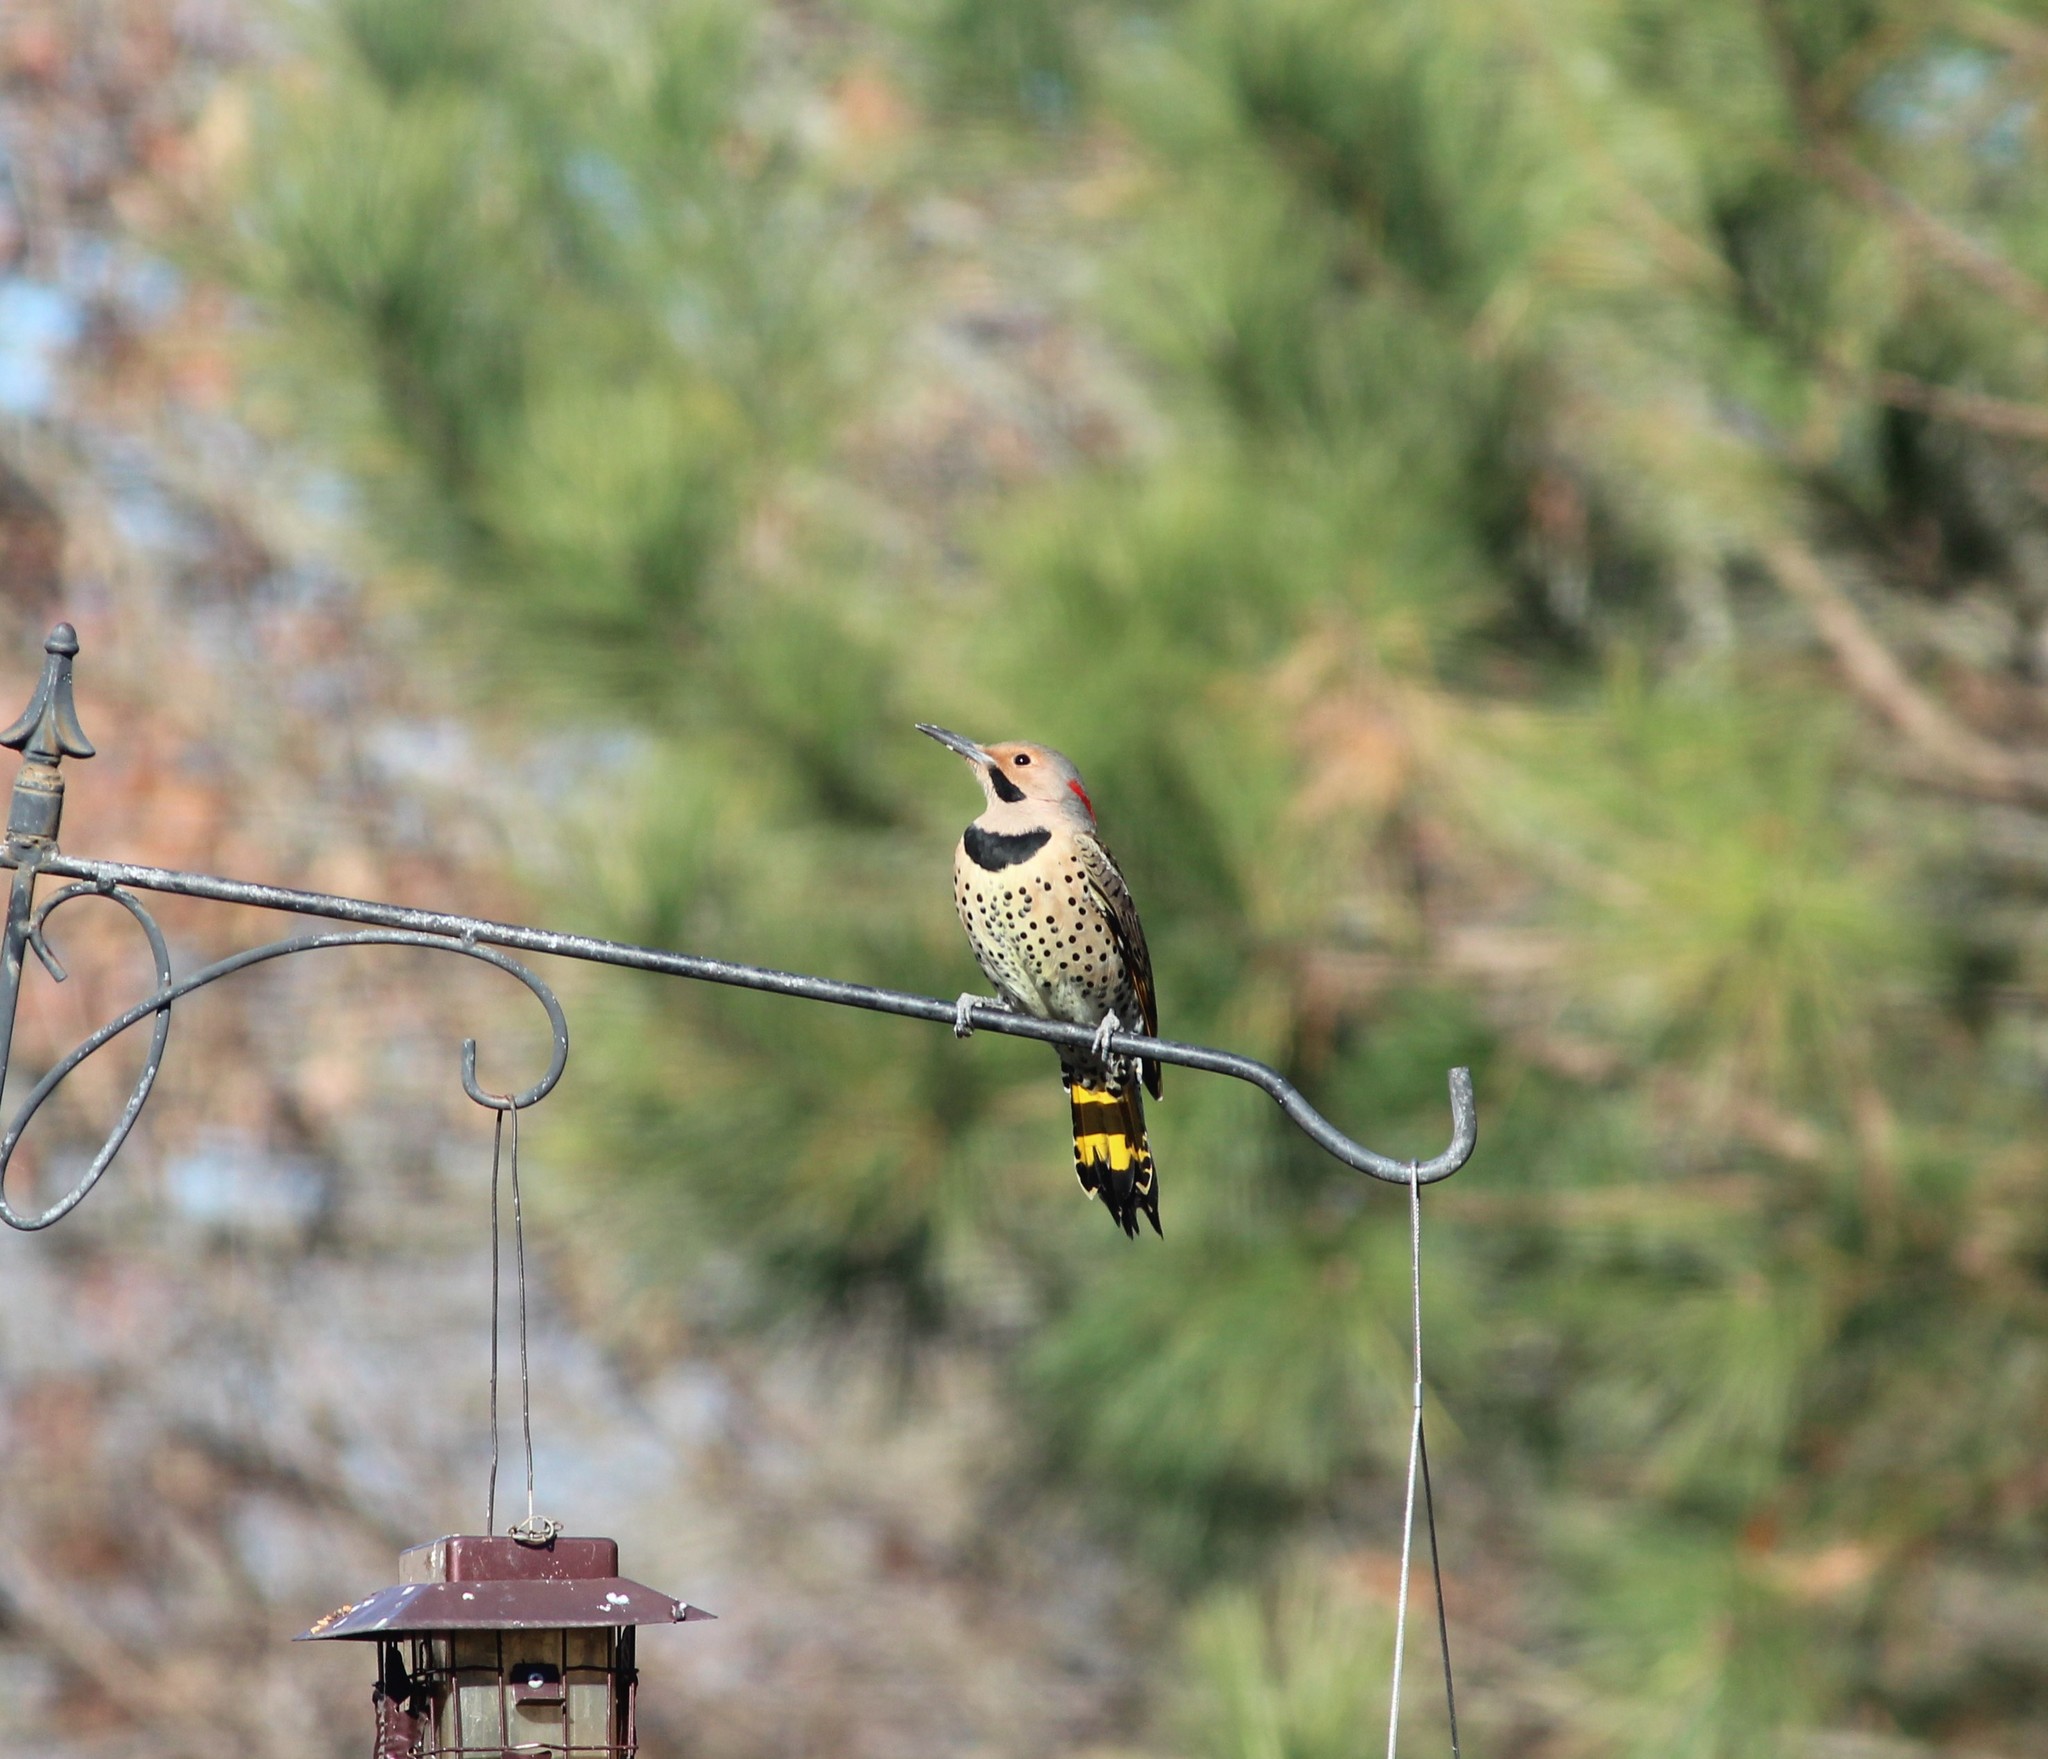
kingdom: Animalia
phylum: Chordata
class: Aves
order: Piciformes
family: Picidae
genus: Colaptes
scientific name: Colaptes auratus
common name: Northern flicker
